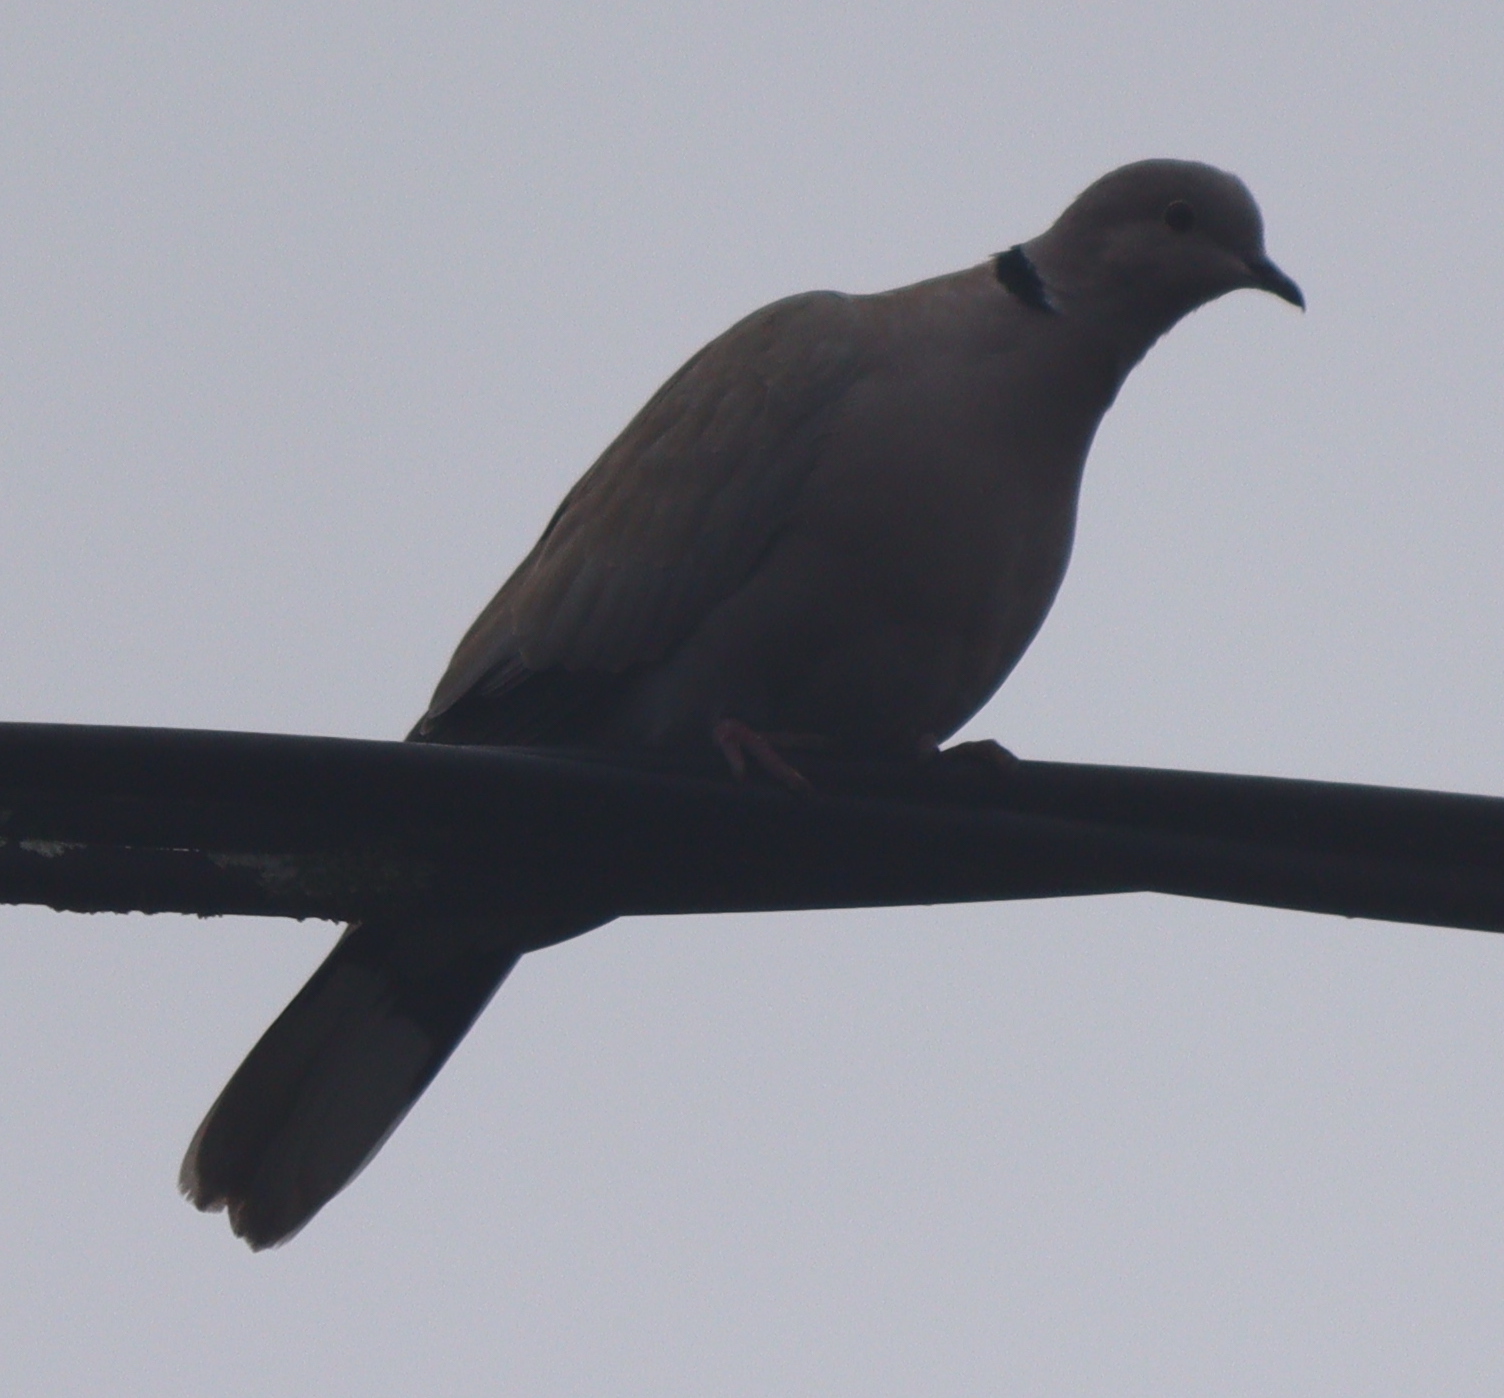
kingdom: Animalia
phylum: Chordata
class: Aves
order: Columbiformes
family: Columbidae
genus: Streptopelia
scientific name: Streptopelia decaocto
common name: Eurasian collared dove
